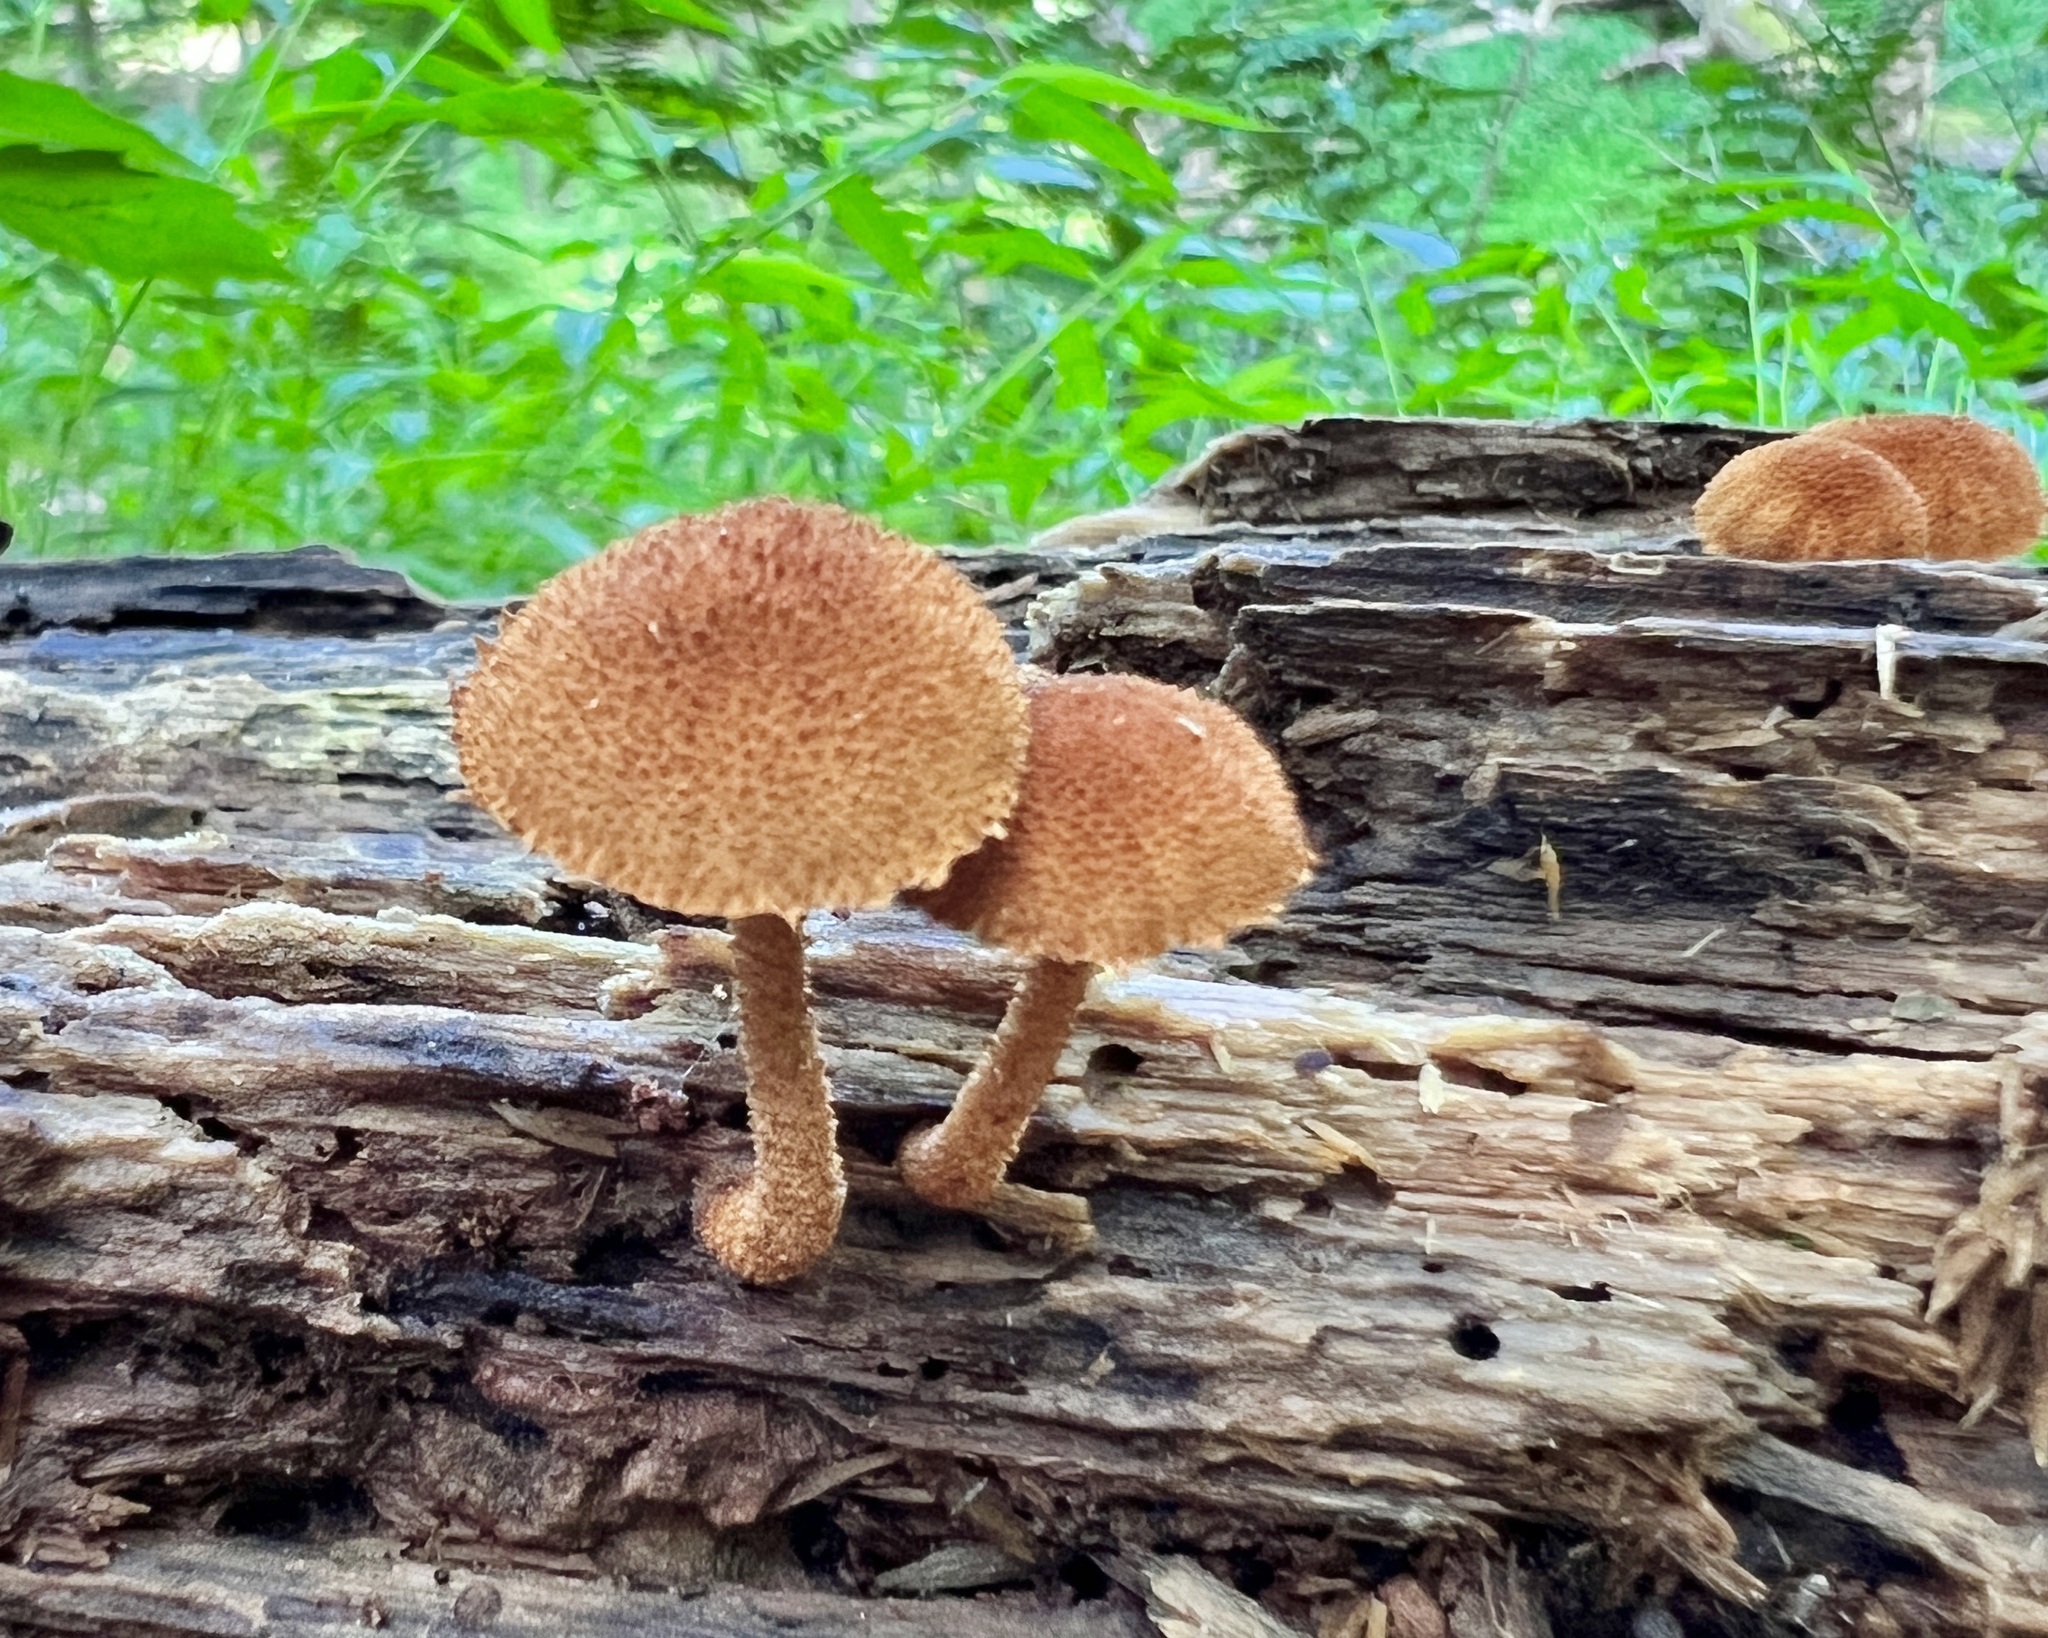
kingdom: Fungi
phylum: Basidiomycota
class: Agaricomycetes
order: Agaricales
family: Tubariaceae
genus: Flammulaster
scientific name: Flammulaster erinaceellus
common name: Powder-scale pholiota
